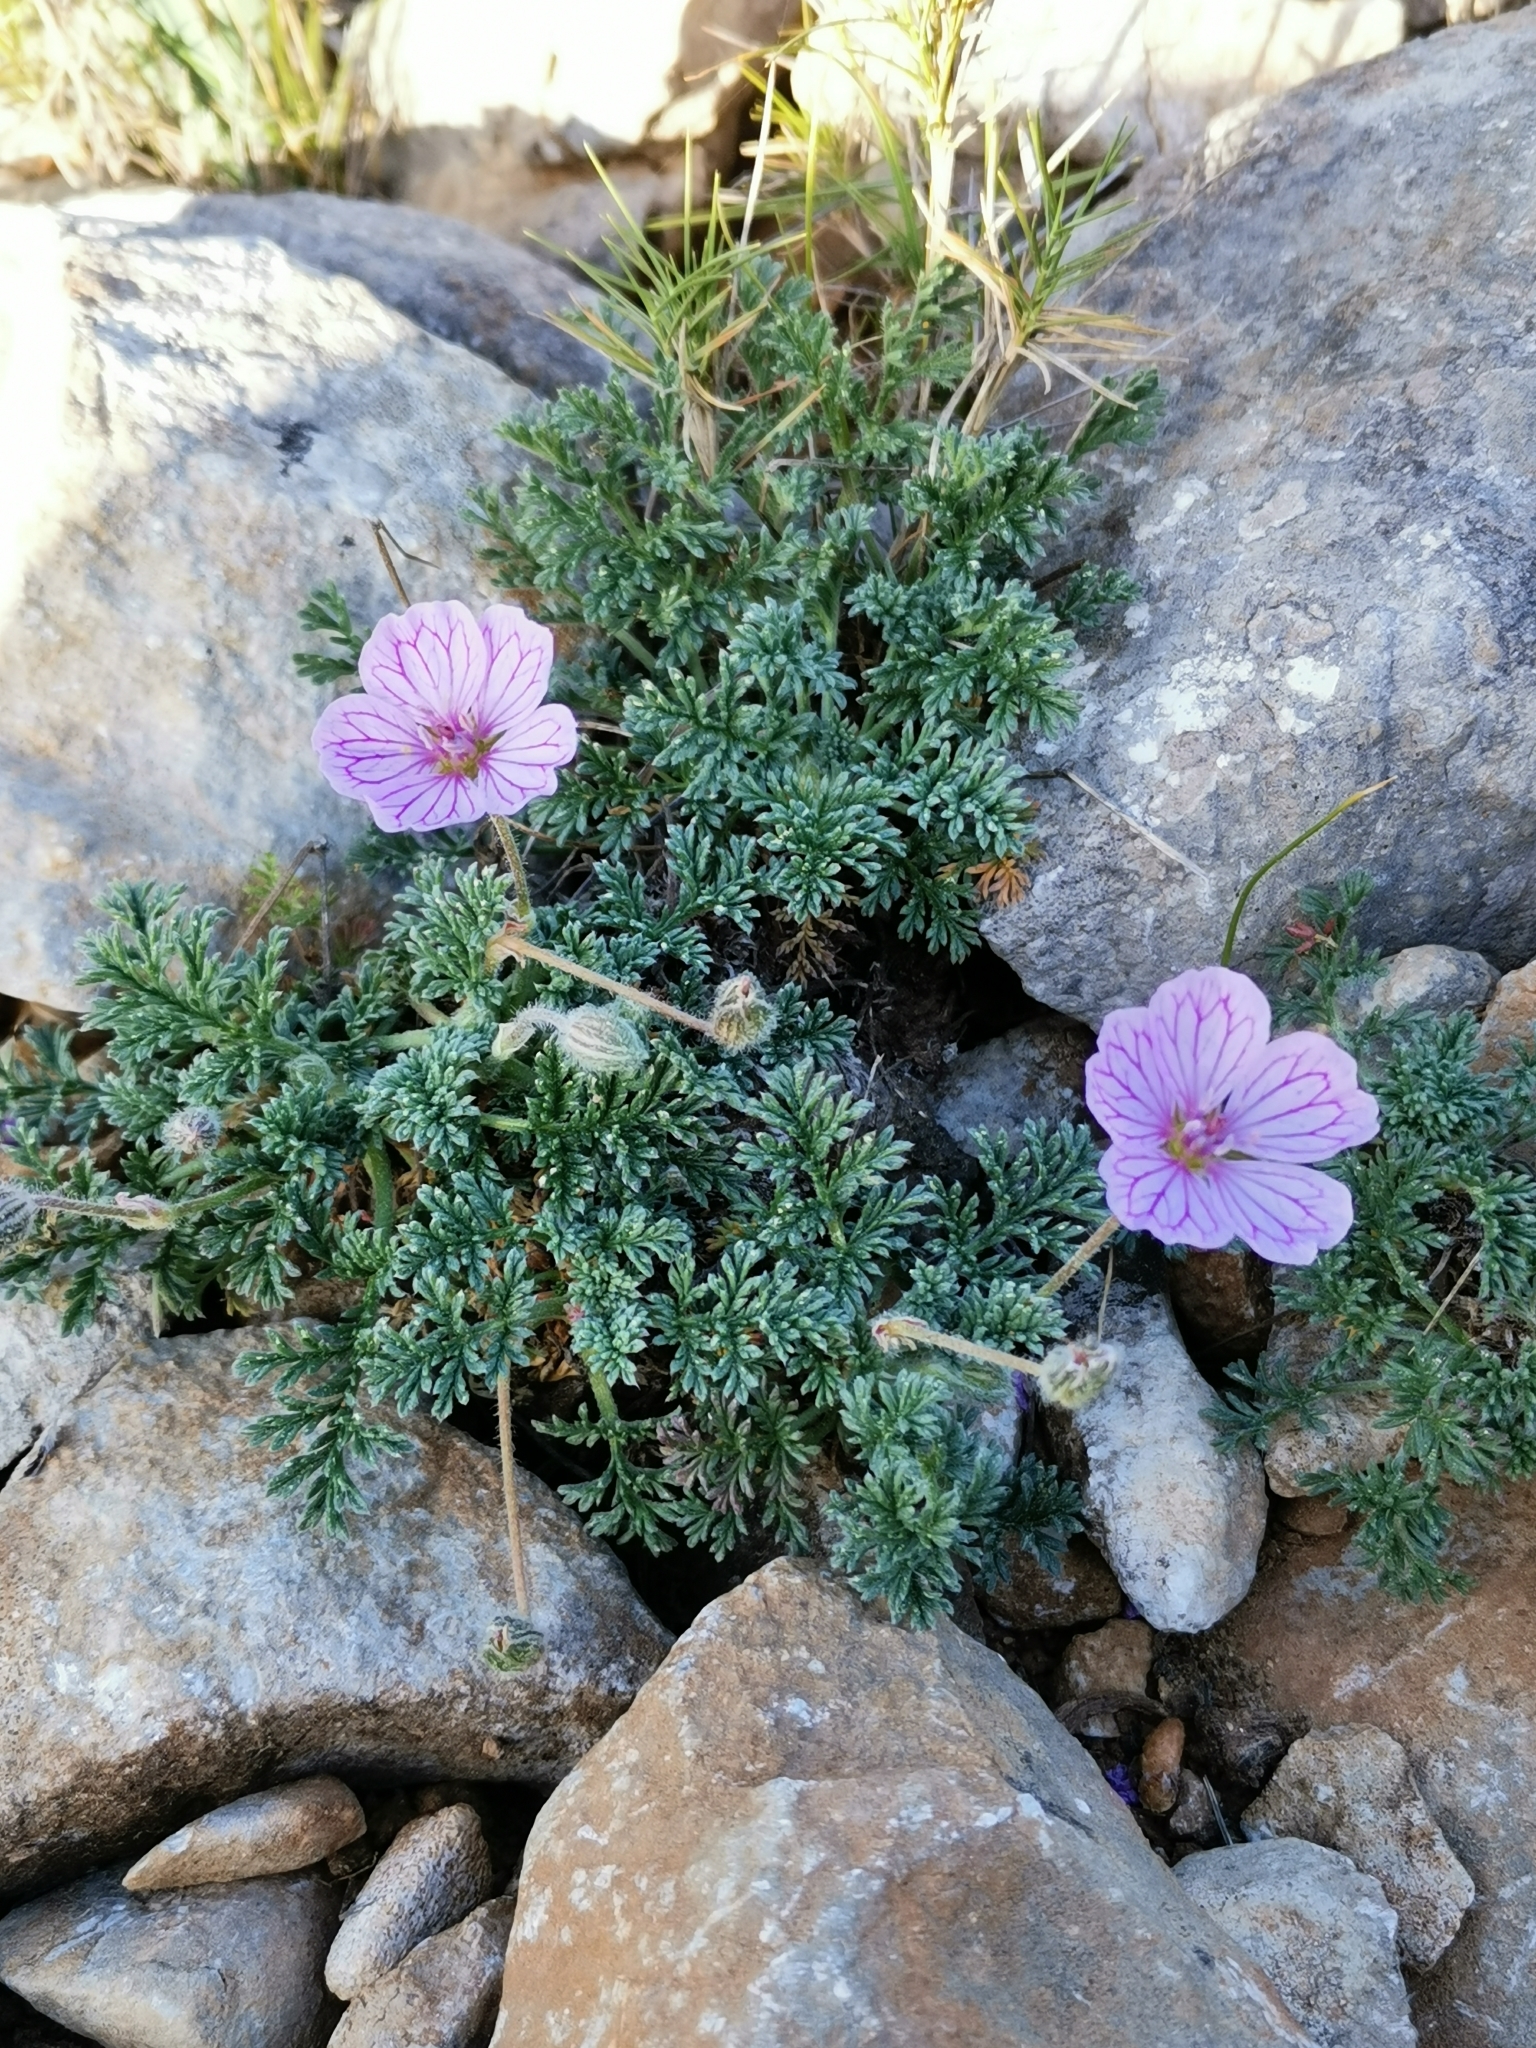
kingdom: Plantae
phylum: Tracheophyta
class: Magnoliopsida
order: Geraniales
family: Geraniaceae
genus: Erodium
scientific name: Erodium foetidum
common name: Rock stork's-bill
